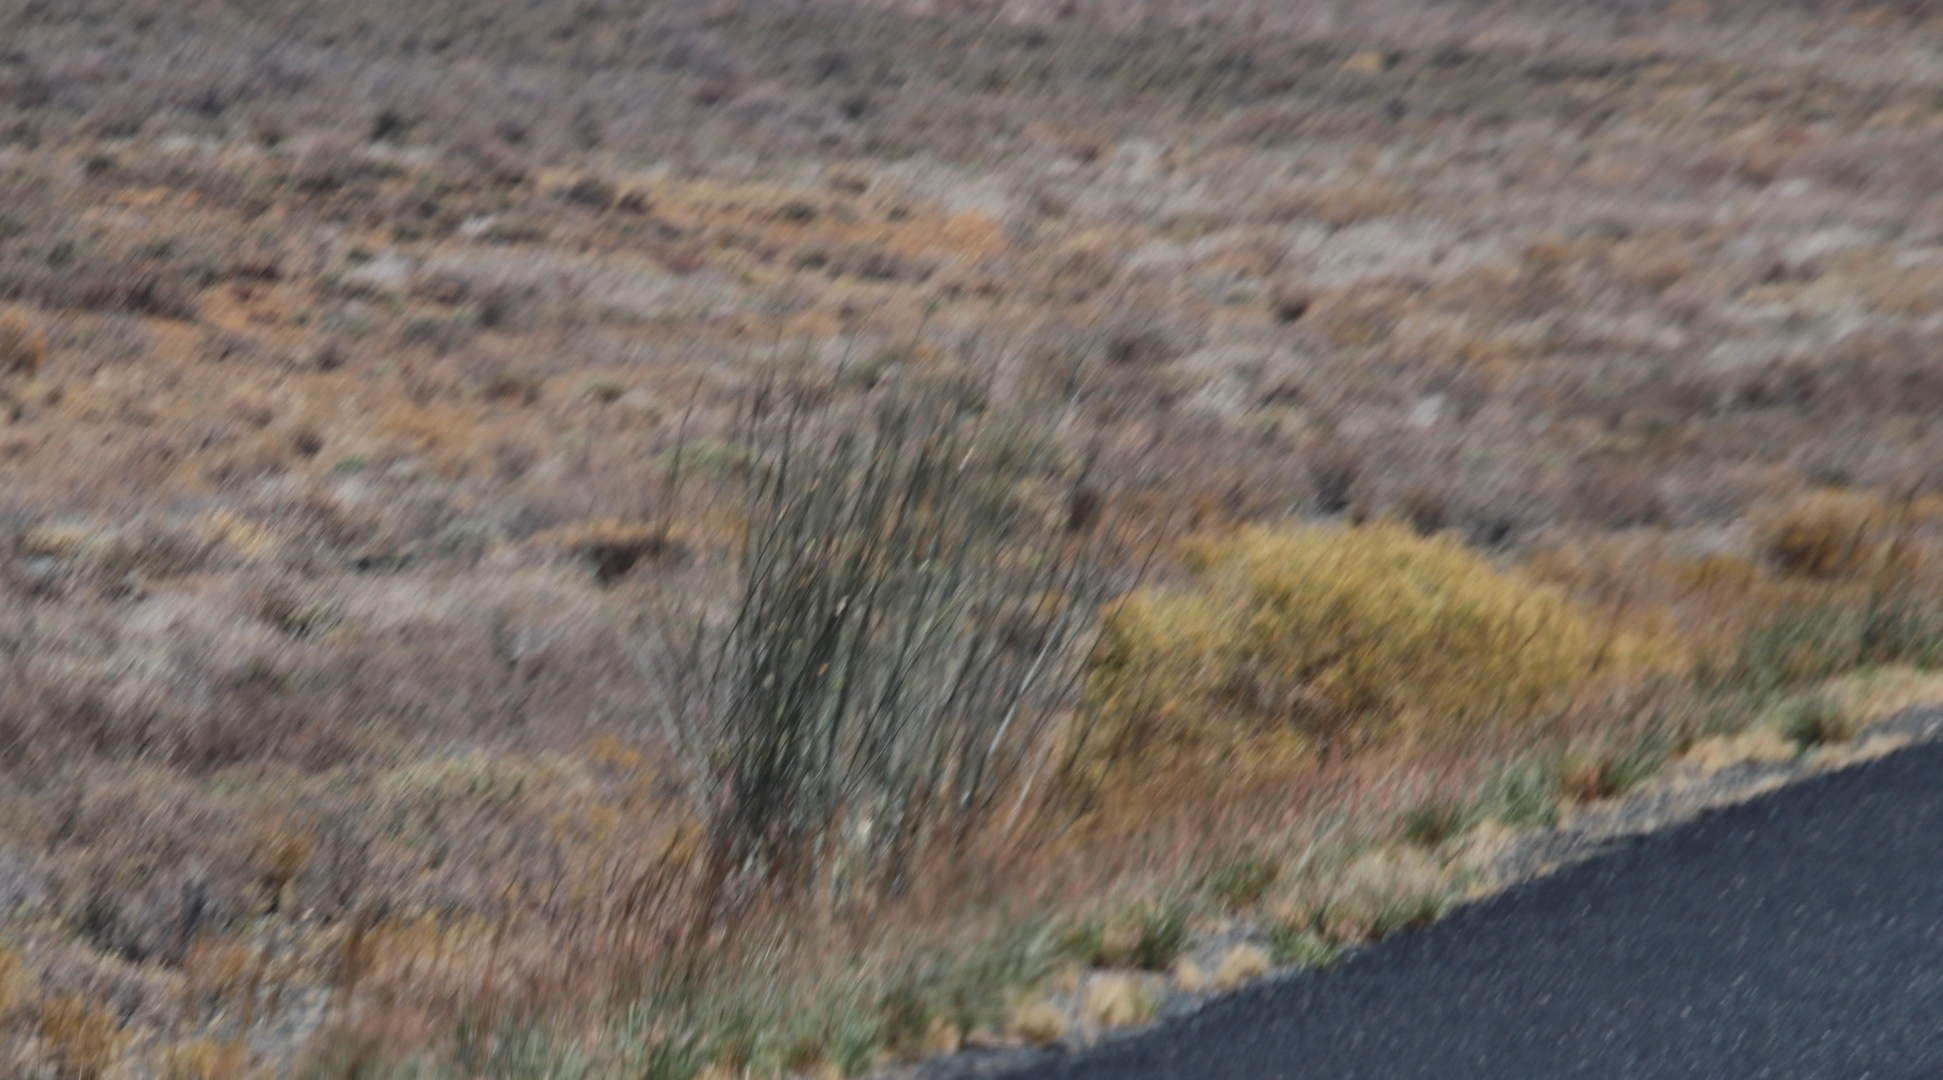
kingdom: Plantae
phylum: Tracheophyta
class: Magnoliopsida
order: Gentianales
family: Apocynaceae
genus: Gomphocarpus
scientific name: Gomphocarpus filiformis
